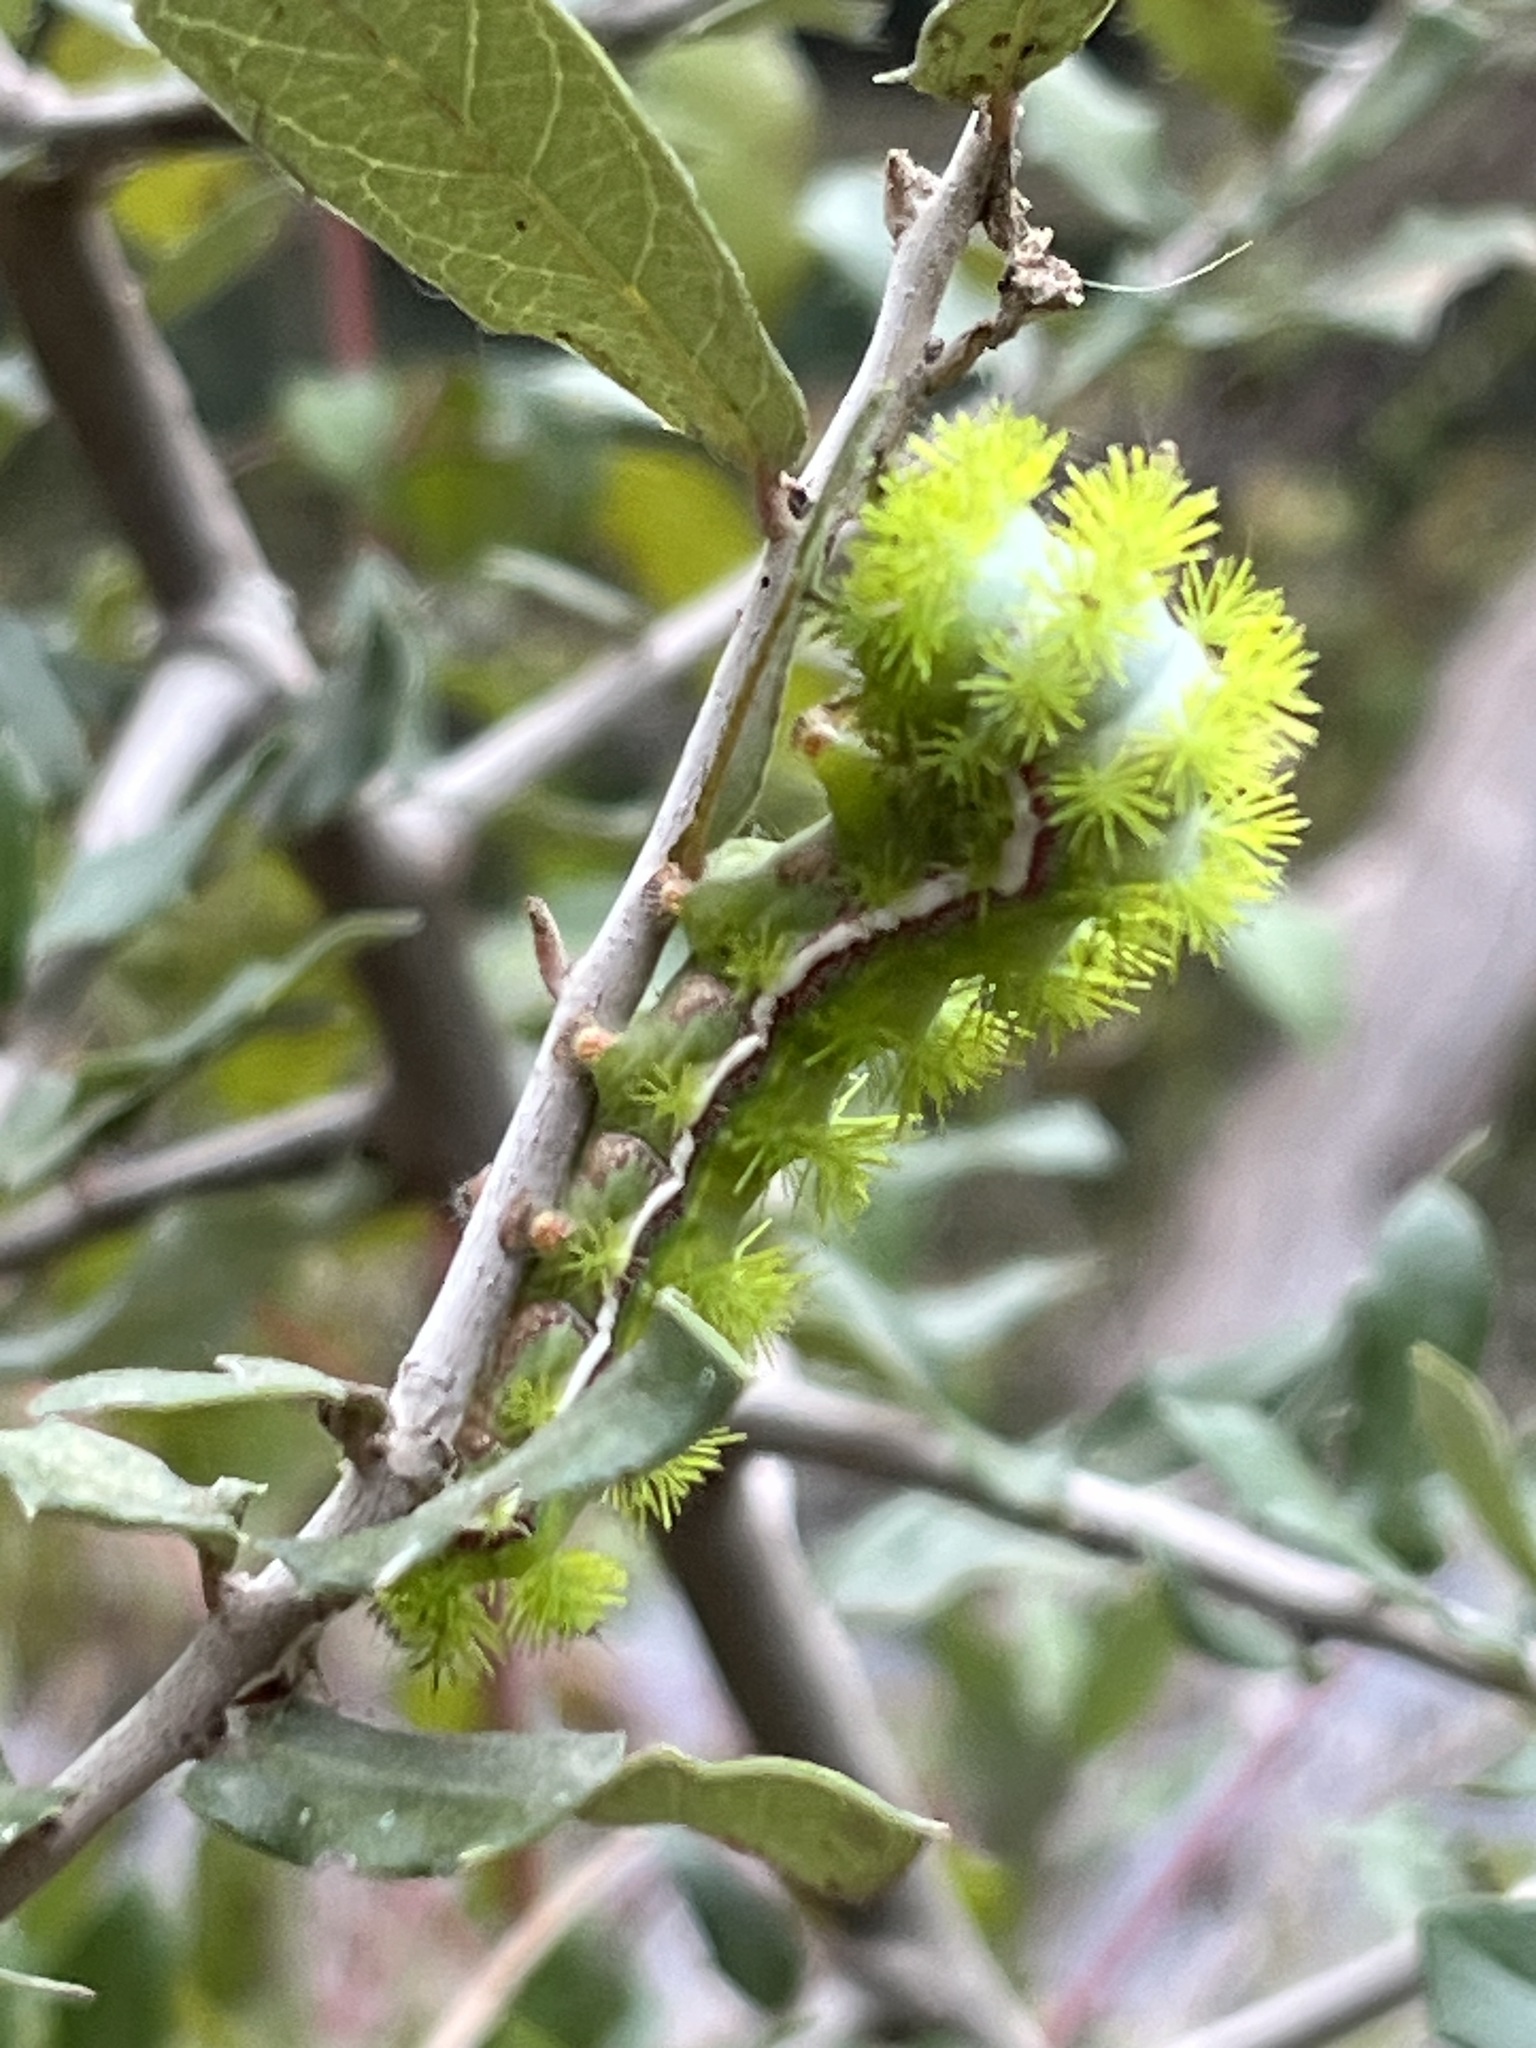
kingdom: Animalia
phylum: Arthropoda
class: Insecta
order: Lepidoptera
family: Saturniidae
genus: Automeris
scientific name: Automeris io
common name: Io moth
